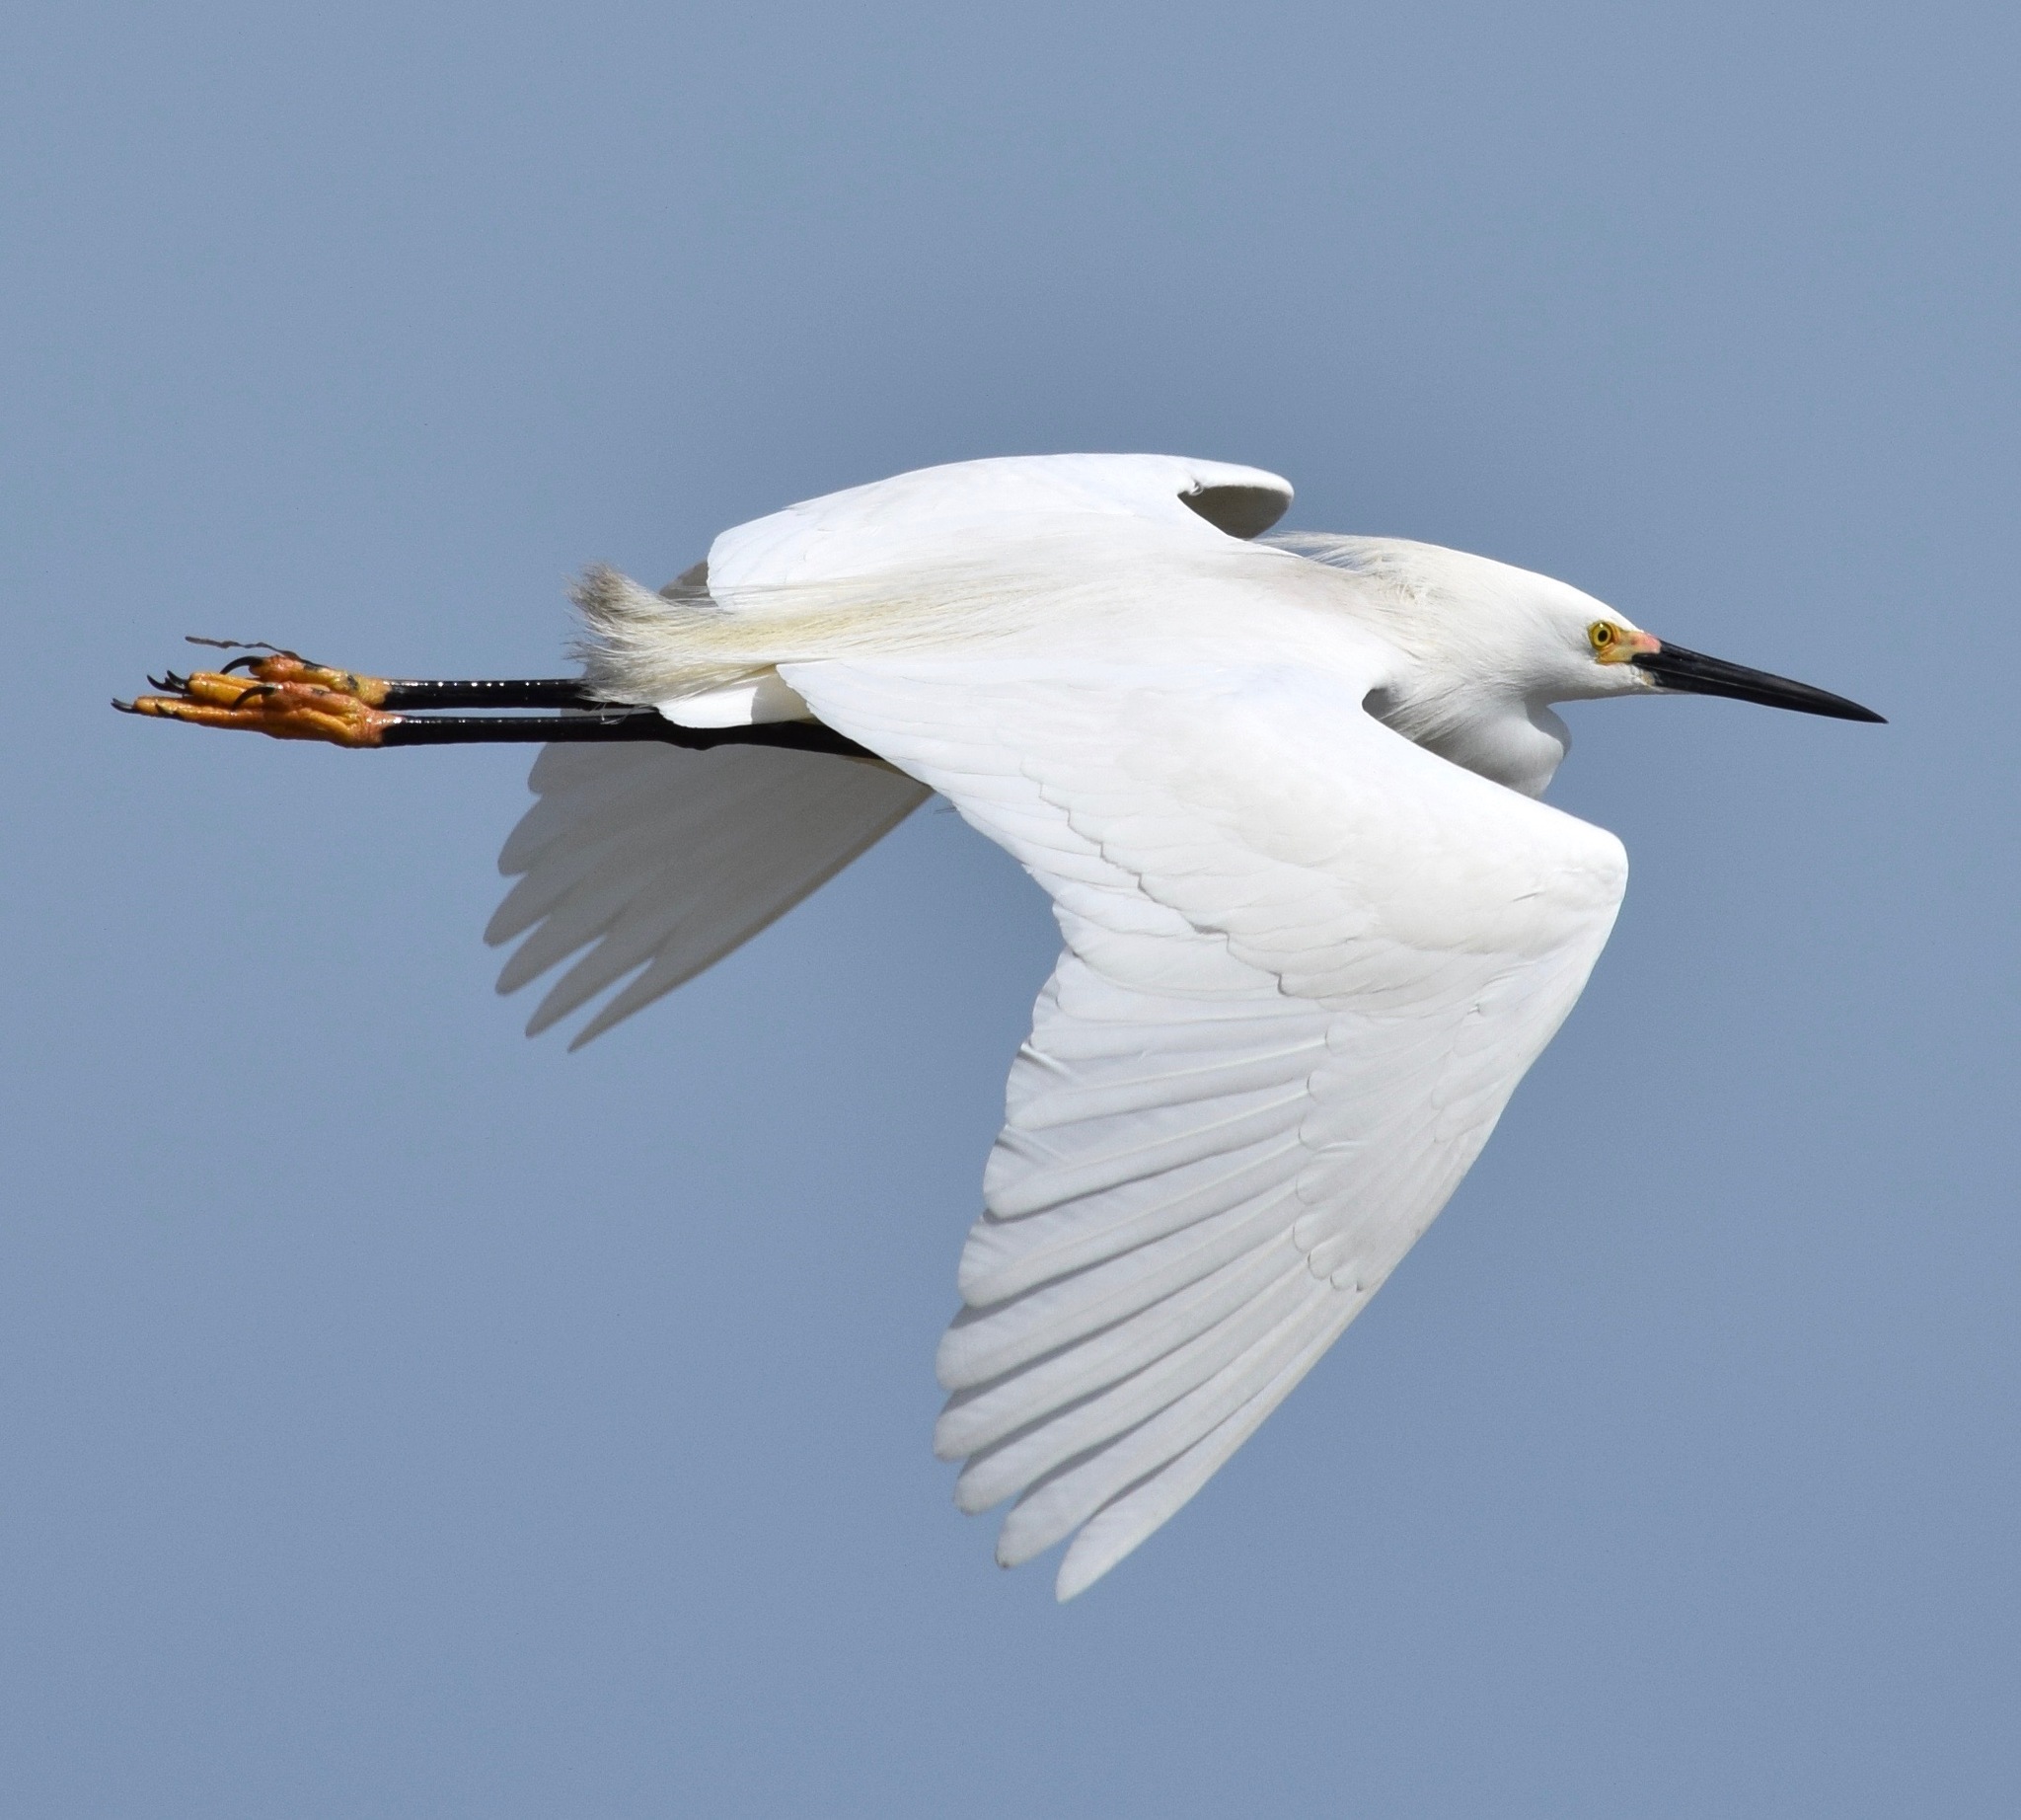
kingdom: Animalia
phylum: Chordata
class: Aves
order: Pelecaniformes
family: Ardeidae
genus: Egretta
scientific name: Egretta thula
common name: Snowy egret
